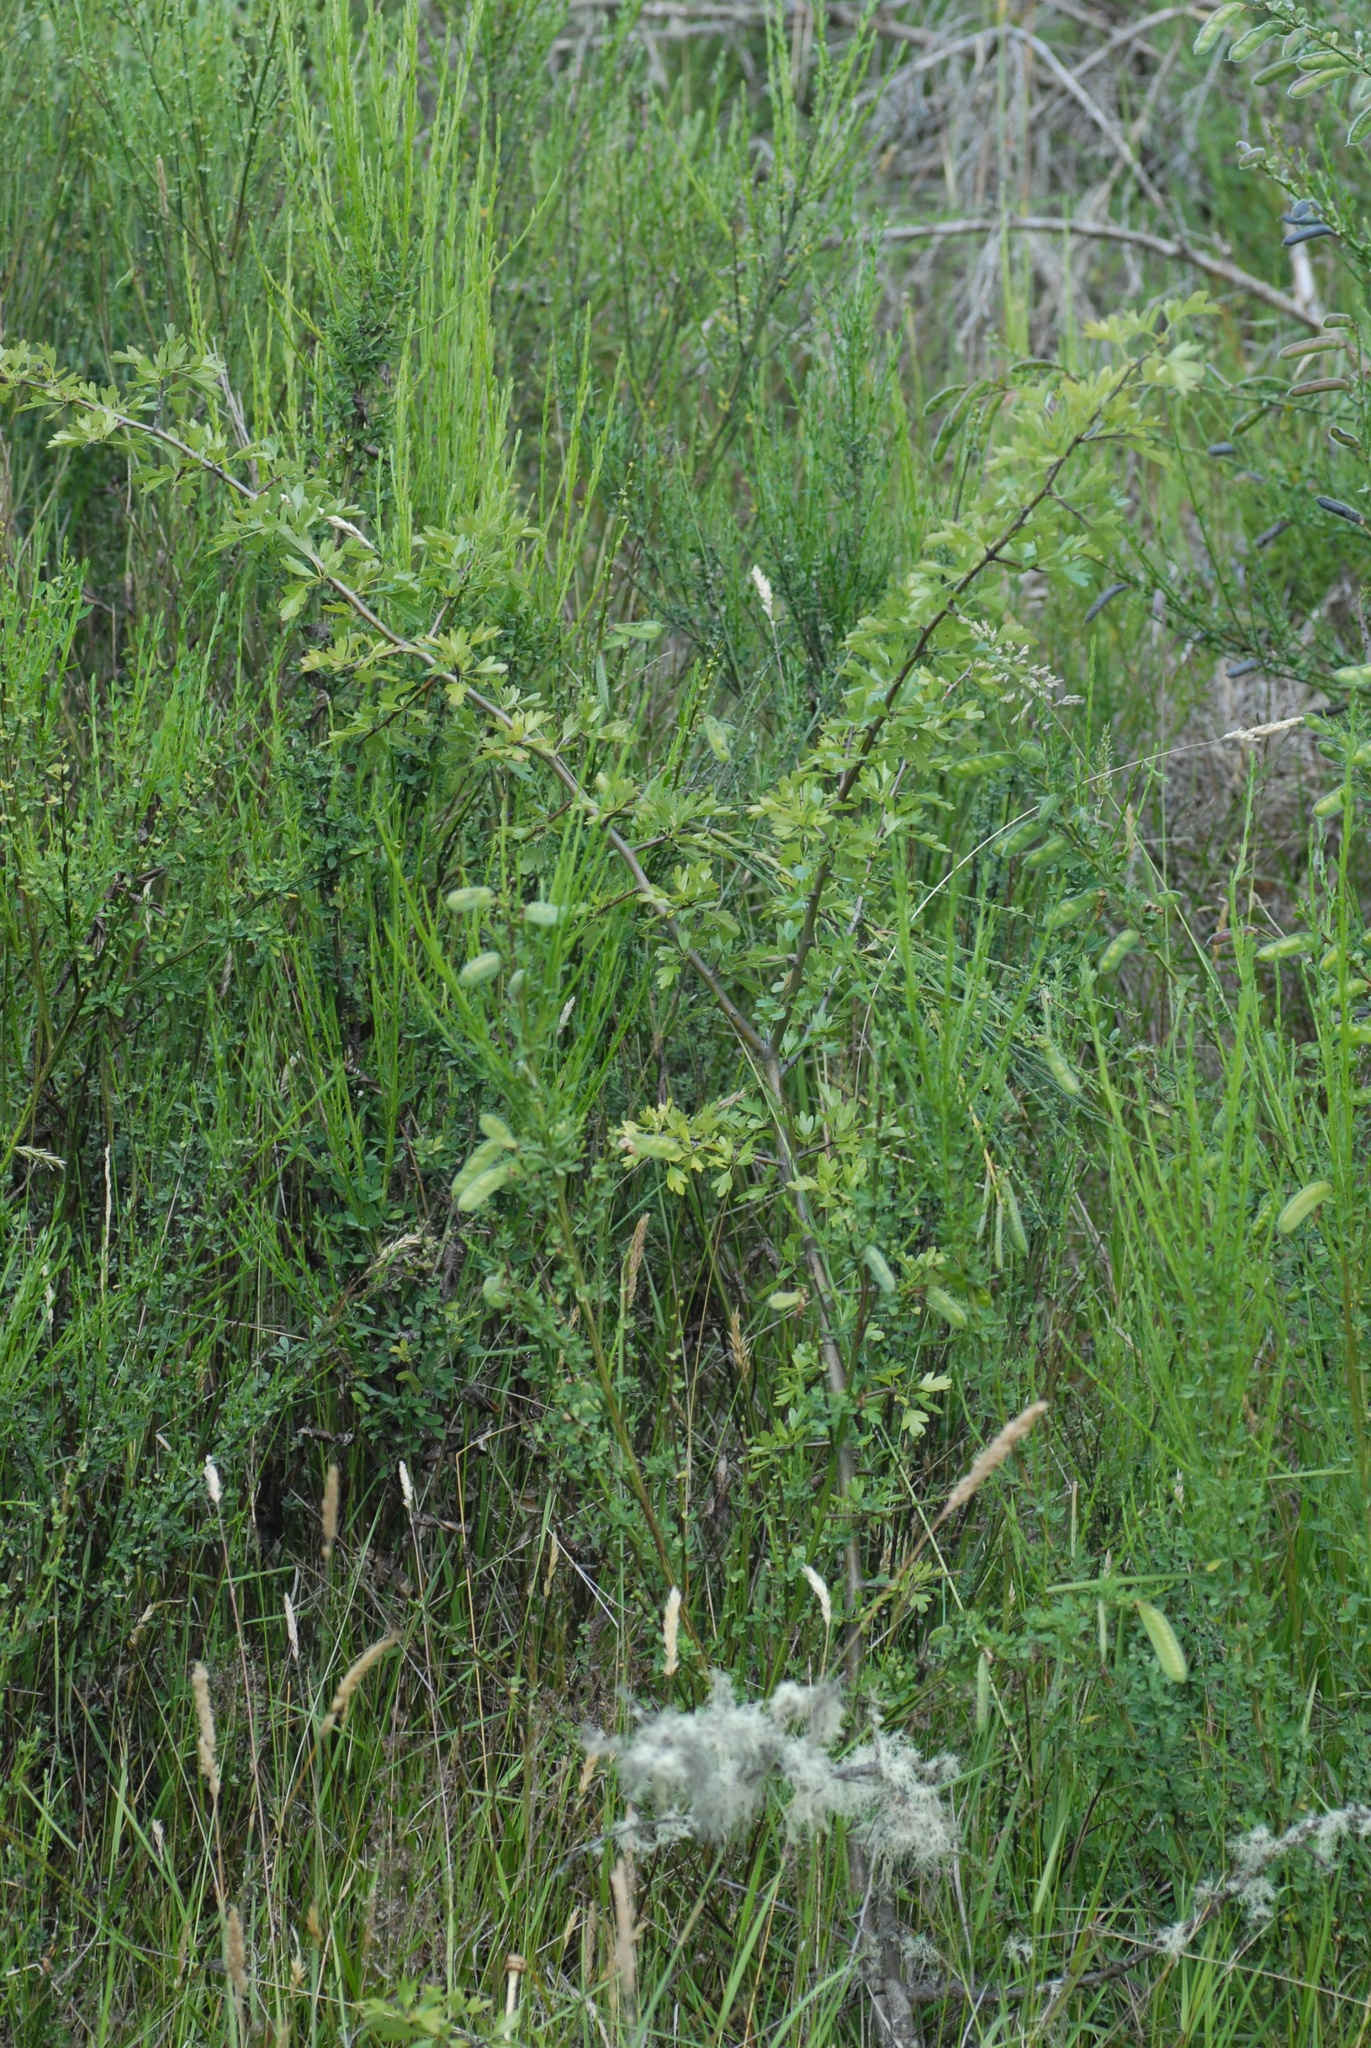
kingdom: Plantae
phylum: Tracheophyta
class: Magnoliopsida
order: Rosales
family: Rosaceae
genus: Crataegus
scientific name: Crataegus monogyna
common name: Hawthorn
